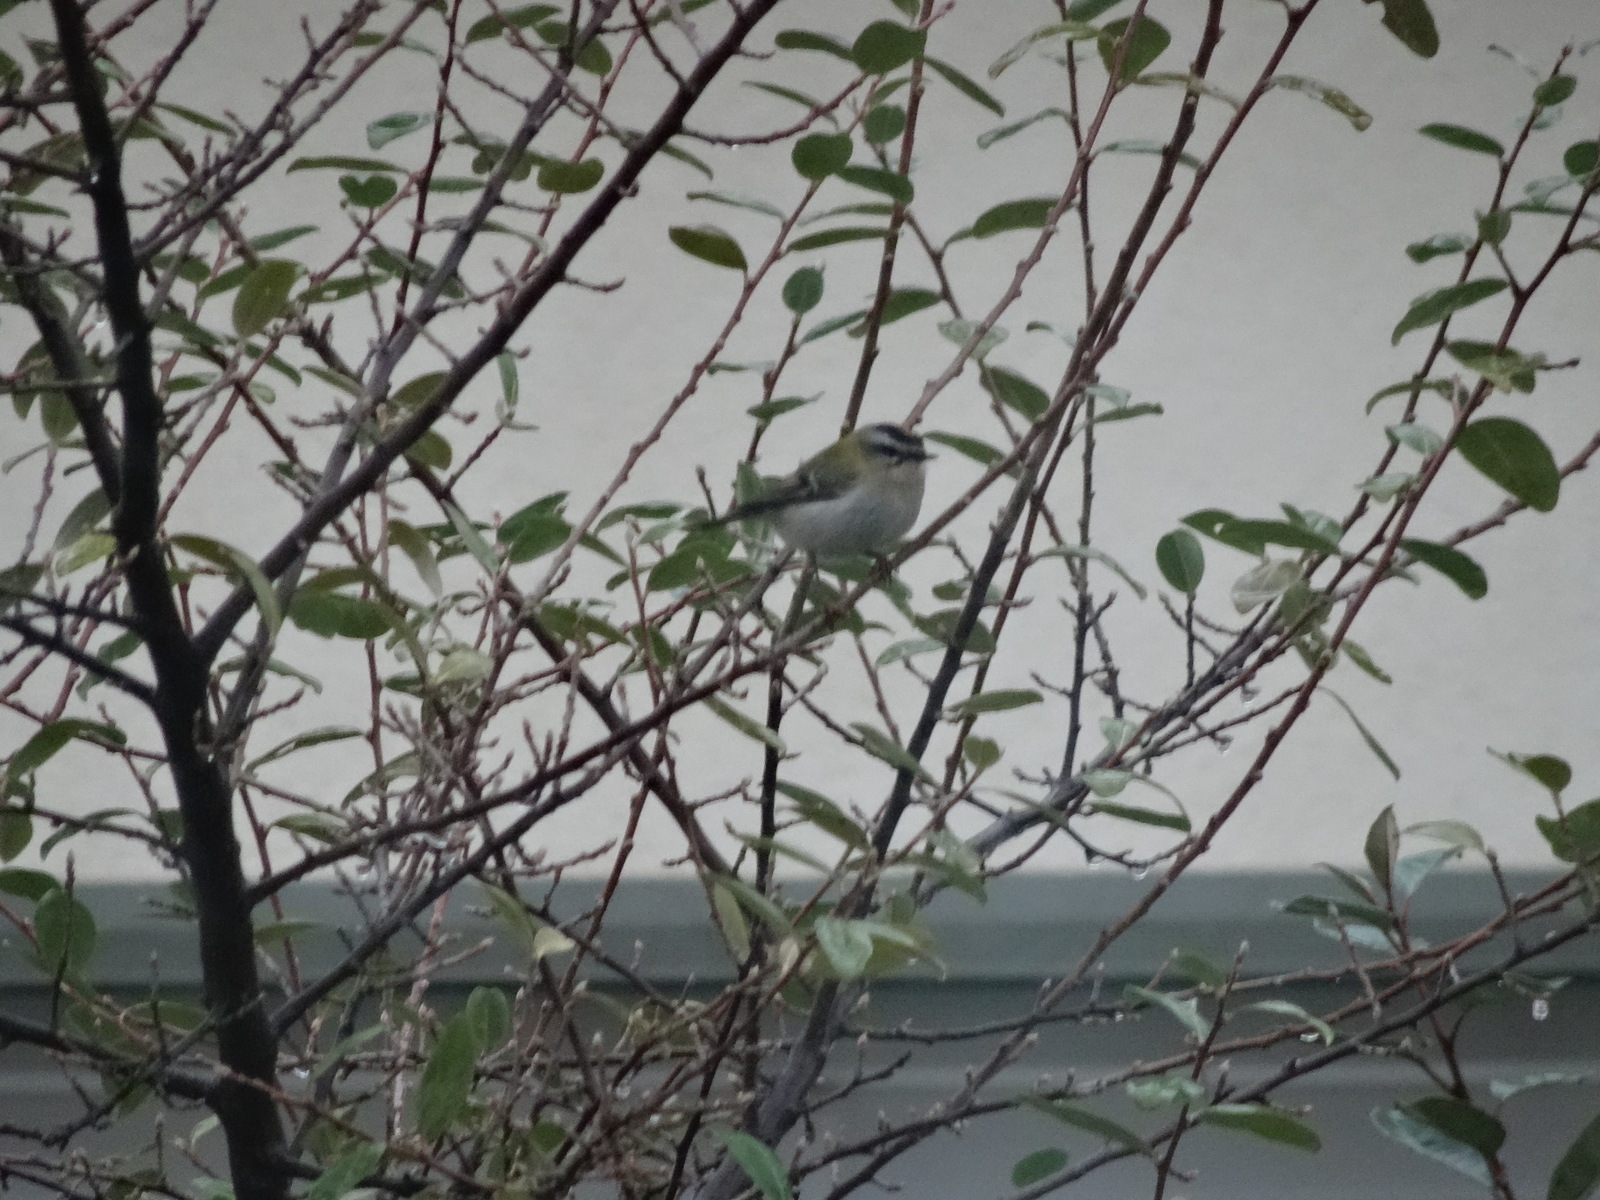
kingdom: Animalia
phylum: Chordata
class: Aves
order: Passeriformes
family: Regulidae
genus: Regulus
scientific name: Regulus ignicapilla
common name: Firecrest
